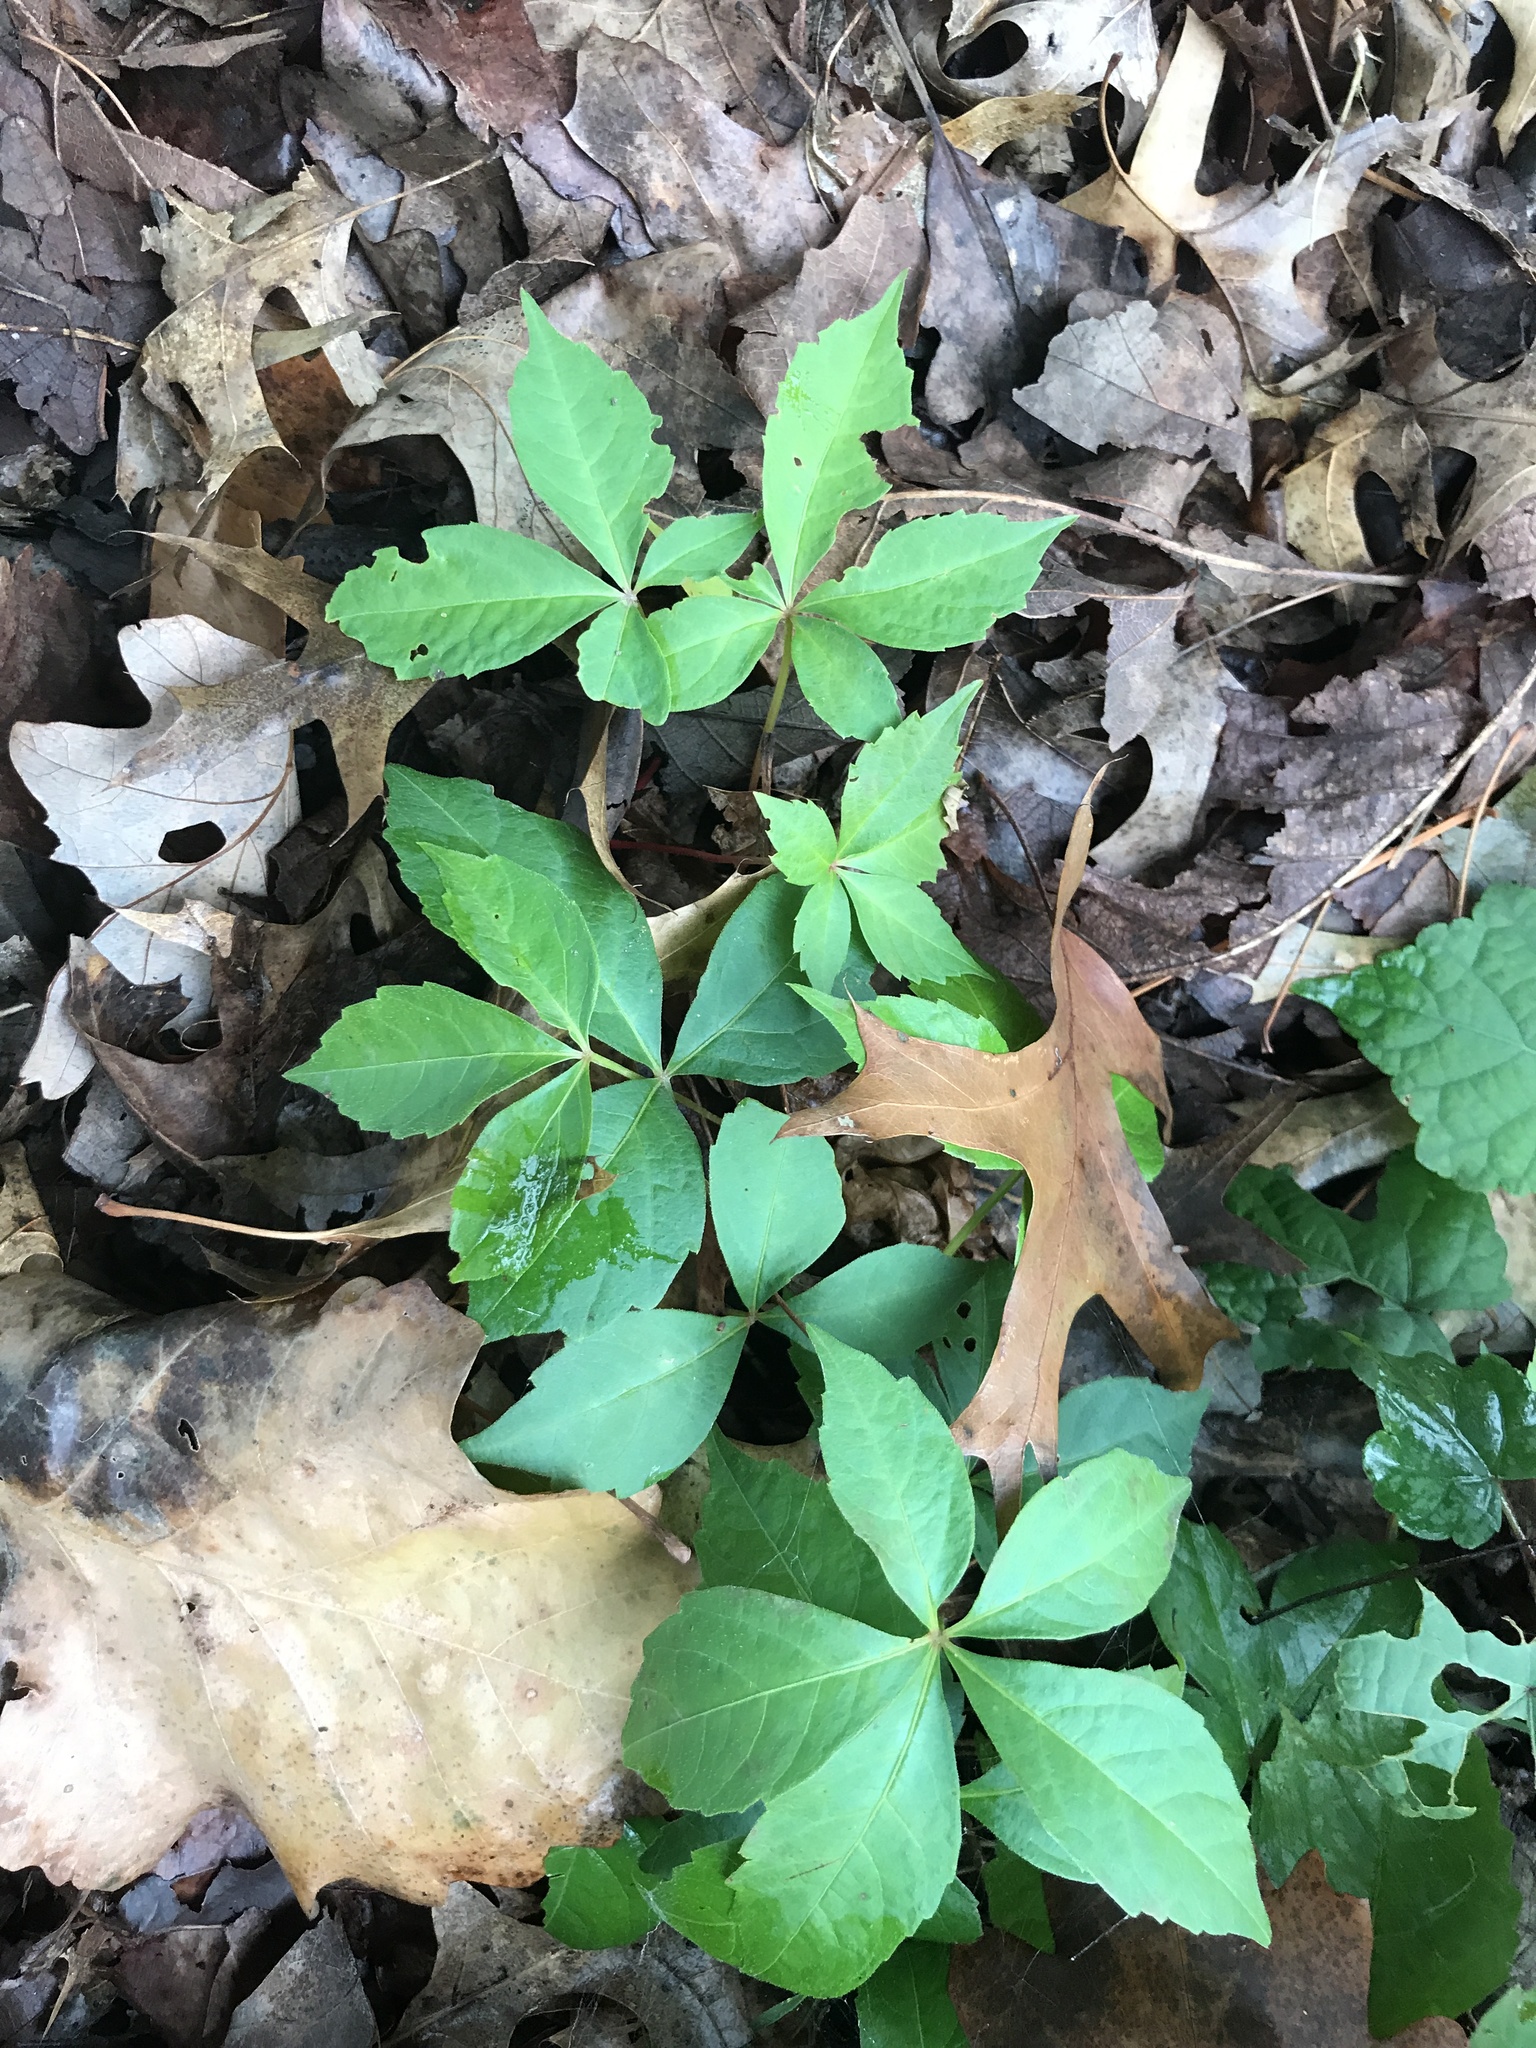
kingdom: Plantae
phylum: Tracheophyta
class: Magnoliopsida
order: Vitales
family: Vitaceae
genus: Parthenocissus
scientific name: Parthenocissus quinquefolia
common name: Virginia-creeper
